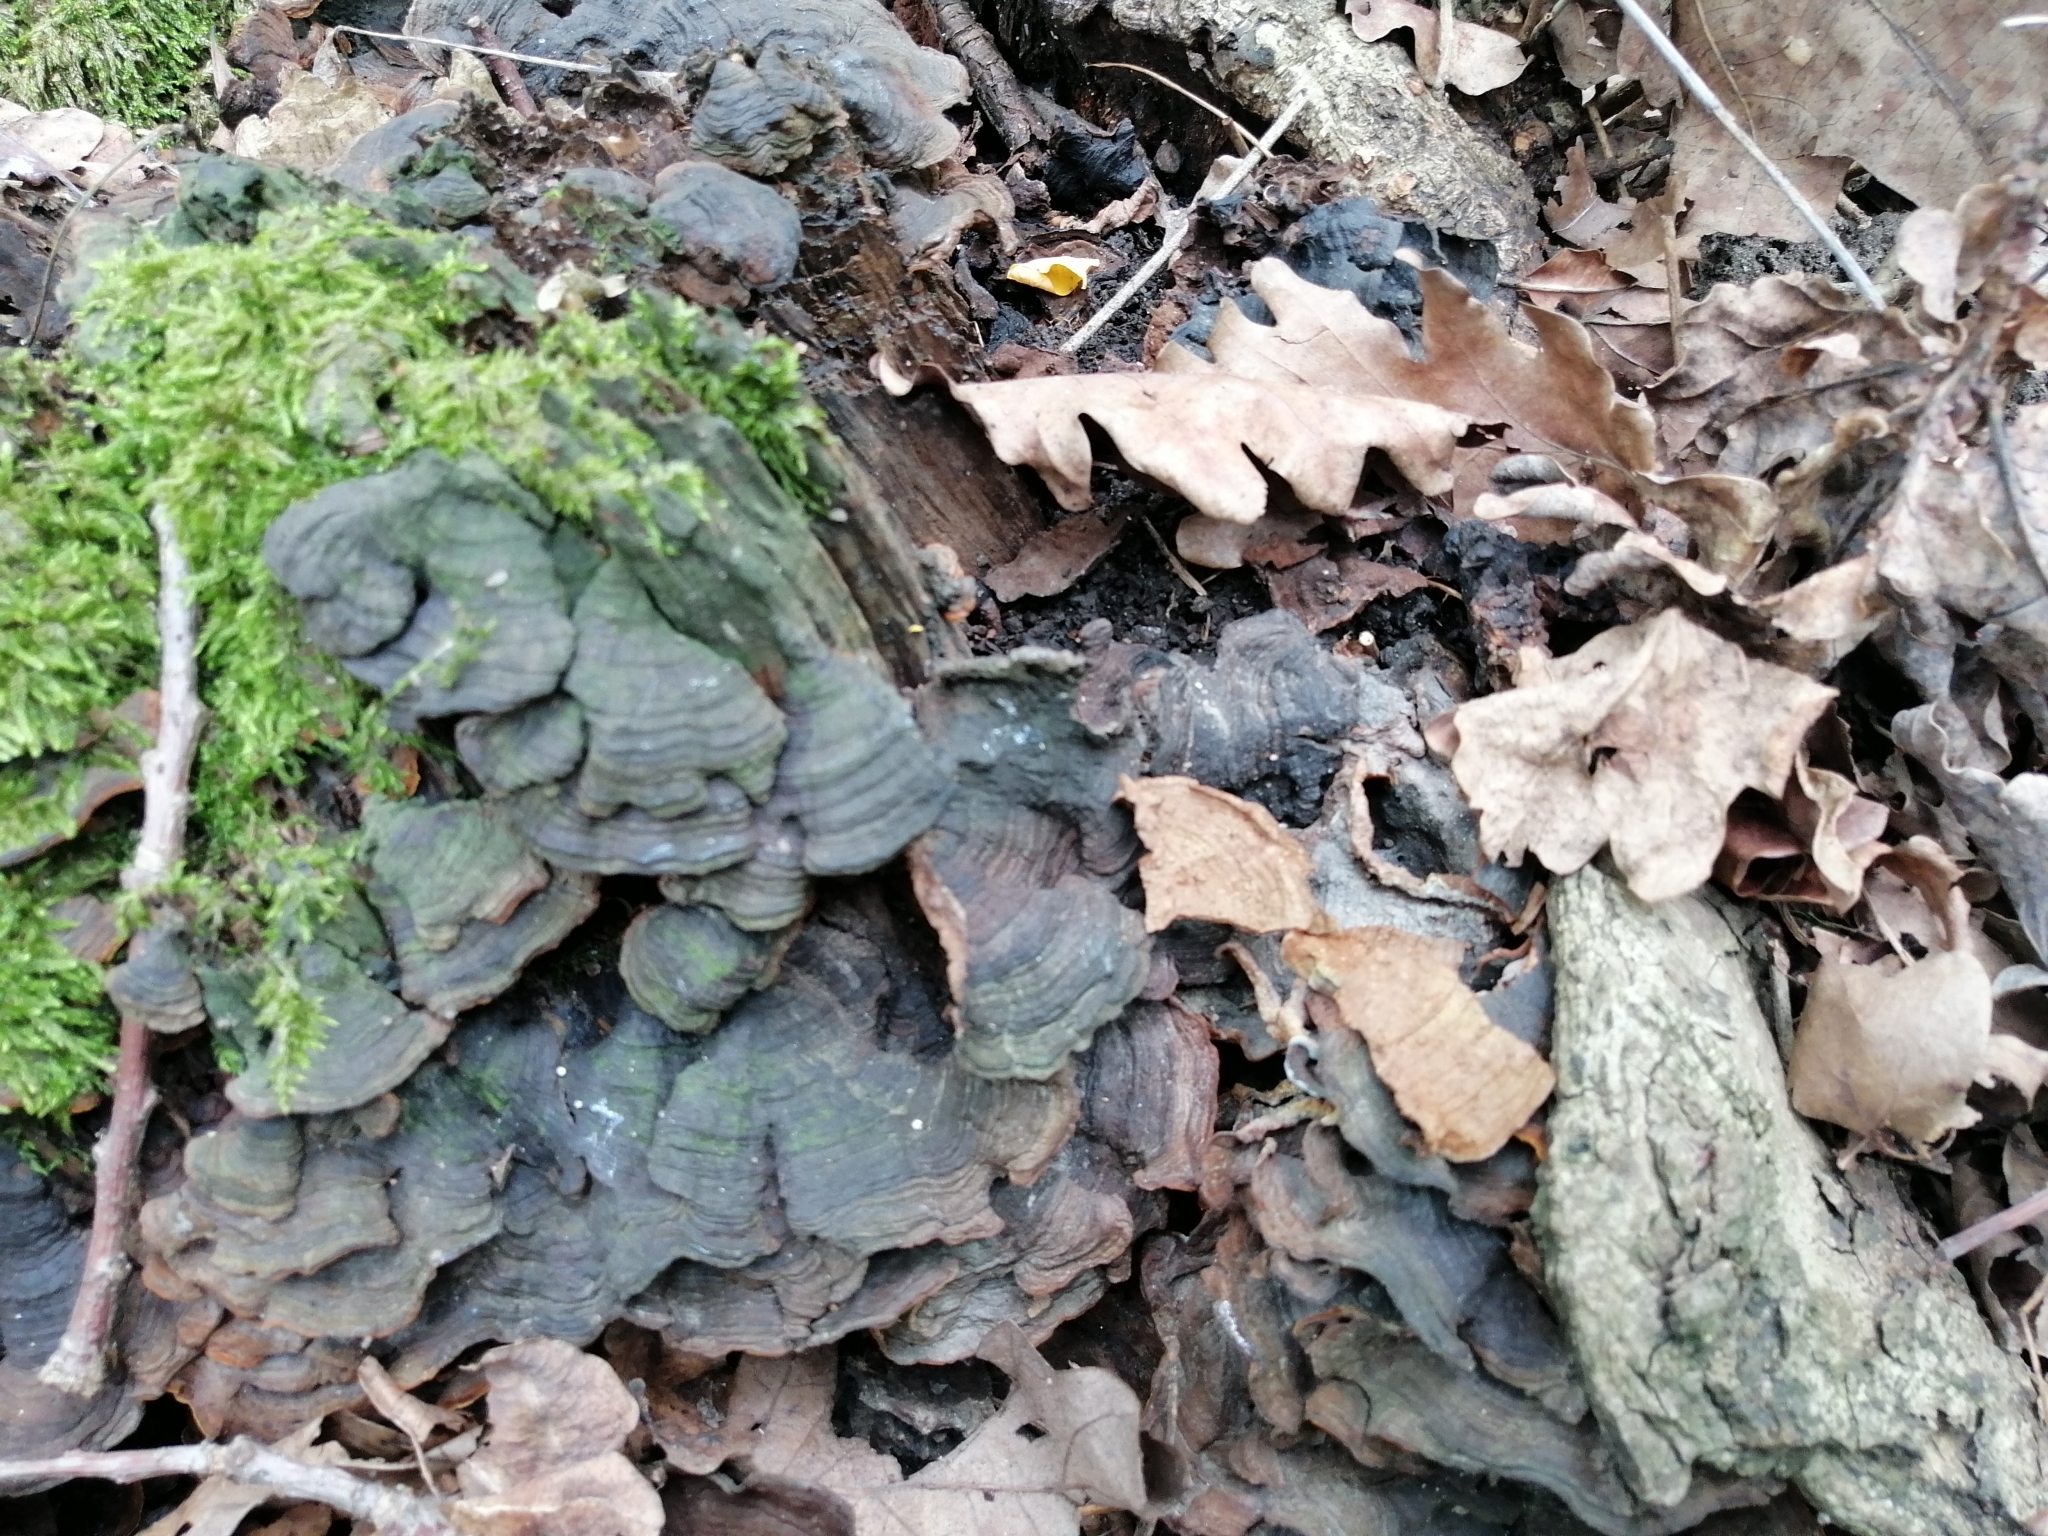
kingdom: Fungi
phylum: Basidiomycota
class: Agaricomycetes
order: Hymenochaetales
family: Hymenochaetaceae
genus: Hymenochaete
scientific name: Hymenochaete rubiginosa
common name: Oak curtain crust
